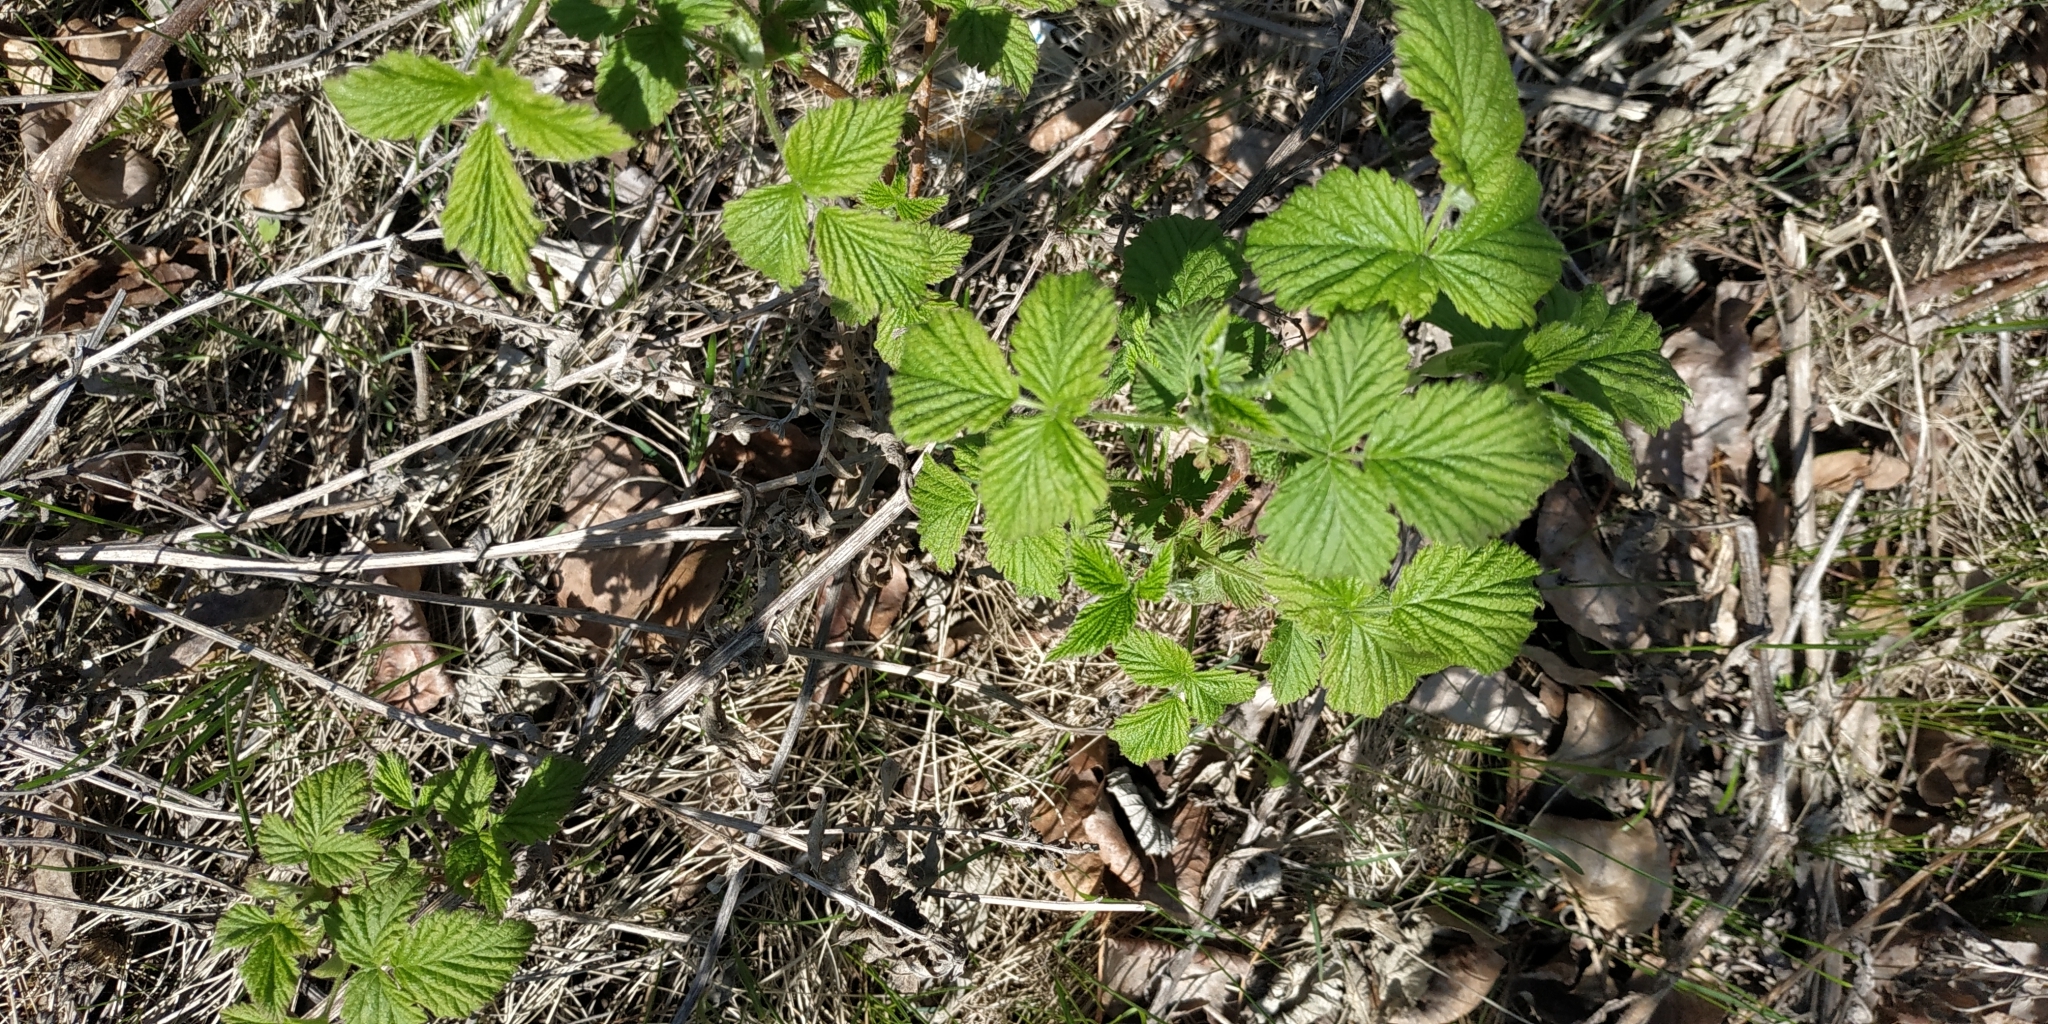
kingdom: Plantae
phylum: Tracheophyta
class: Magnoliopsida
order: Rosales
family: Rosaceae
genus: Rubus
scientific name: Rubus idaeus
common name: Raspberry
